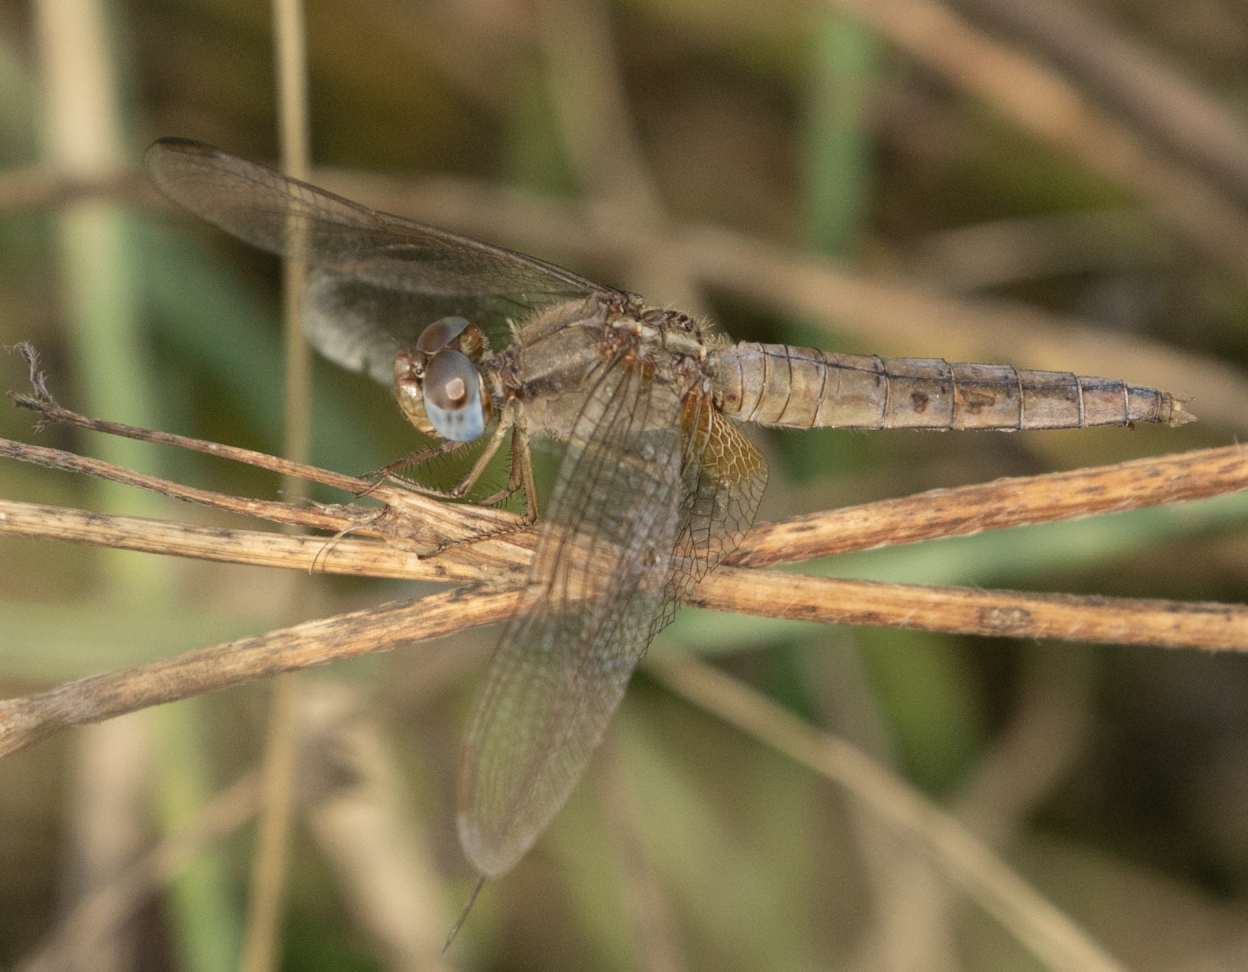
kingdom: Animalia
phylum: Arthropoda
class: Insecta
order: Odonata
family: Libellulidae
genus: Crocothemis
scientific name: Crocothemis erythraea
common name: Scarlet dragonfly
